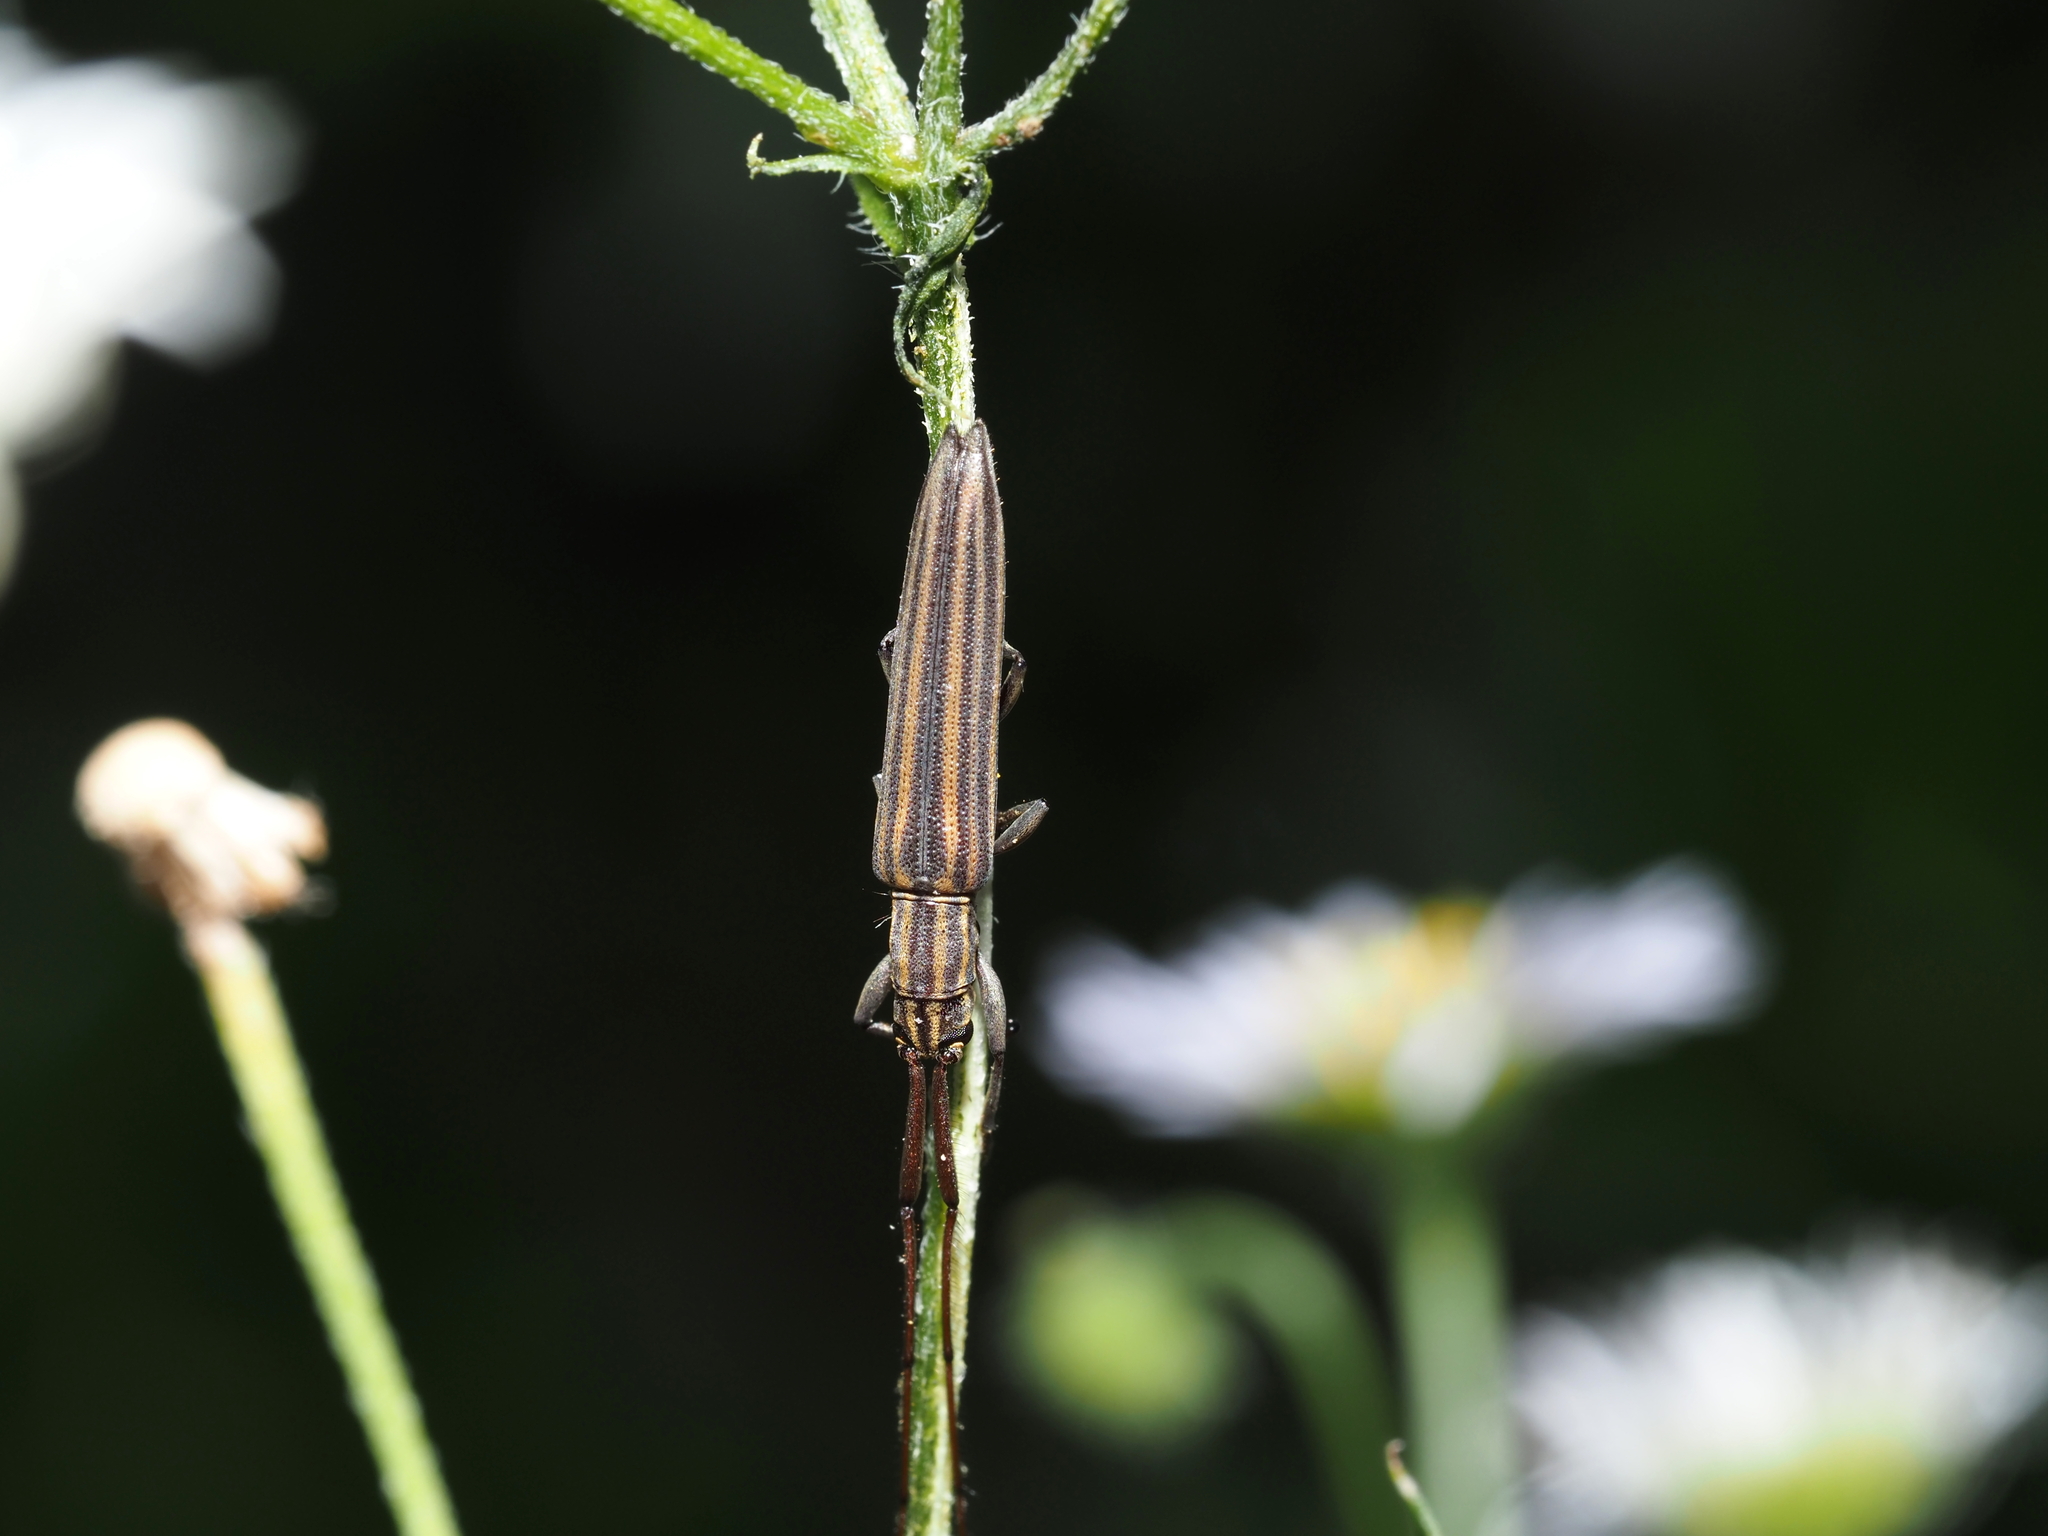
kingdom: Animalia
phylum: Arthropoda
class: Insecta
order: Coleoptera
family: Cerambycidae
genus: Hippopsis
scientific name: Hippopsis
